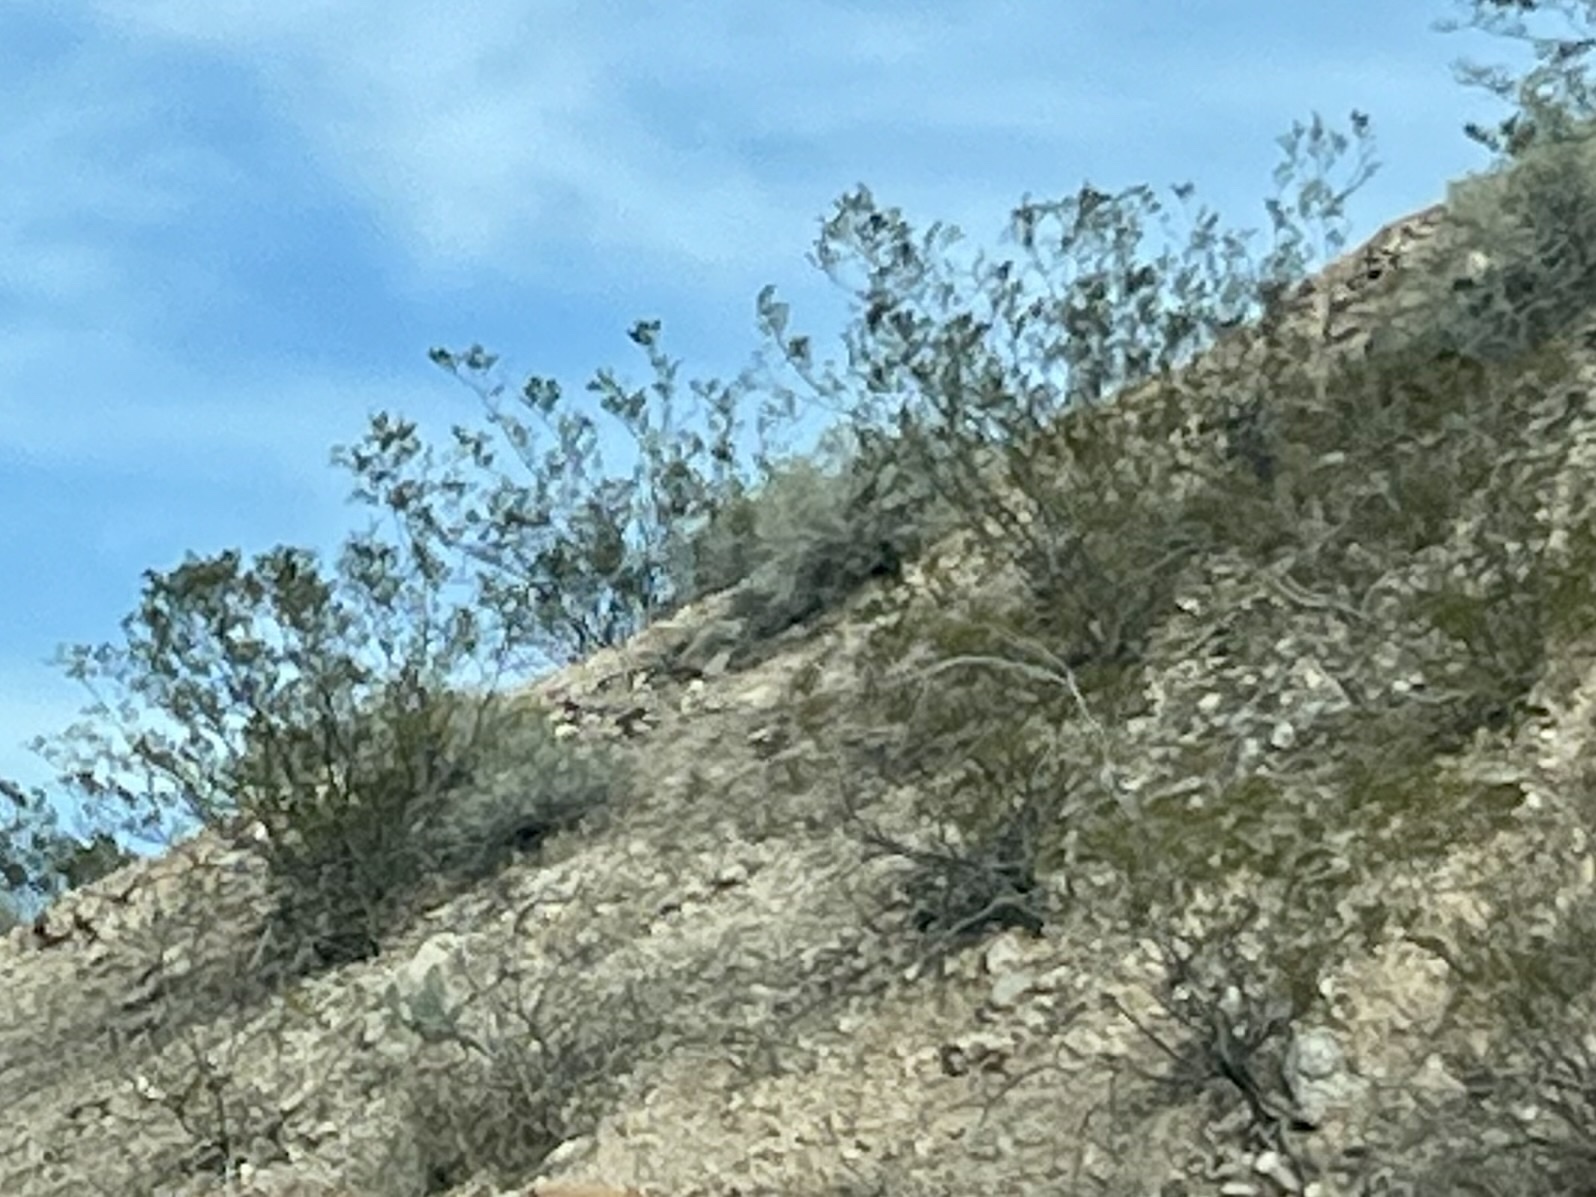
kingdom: Plantae
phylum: Tracheophyta
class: Magnoliopsida
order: Zygophyllales
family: Zygophyllaceae
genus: Larrea
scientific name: Larrea tridentata
